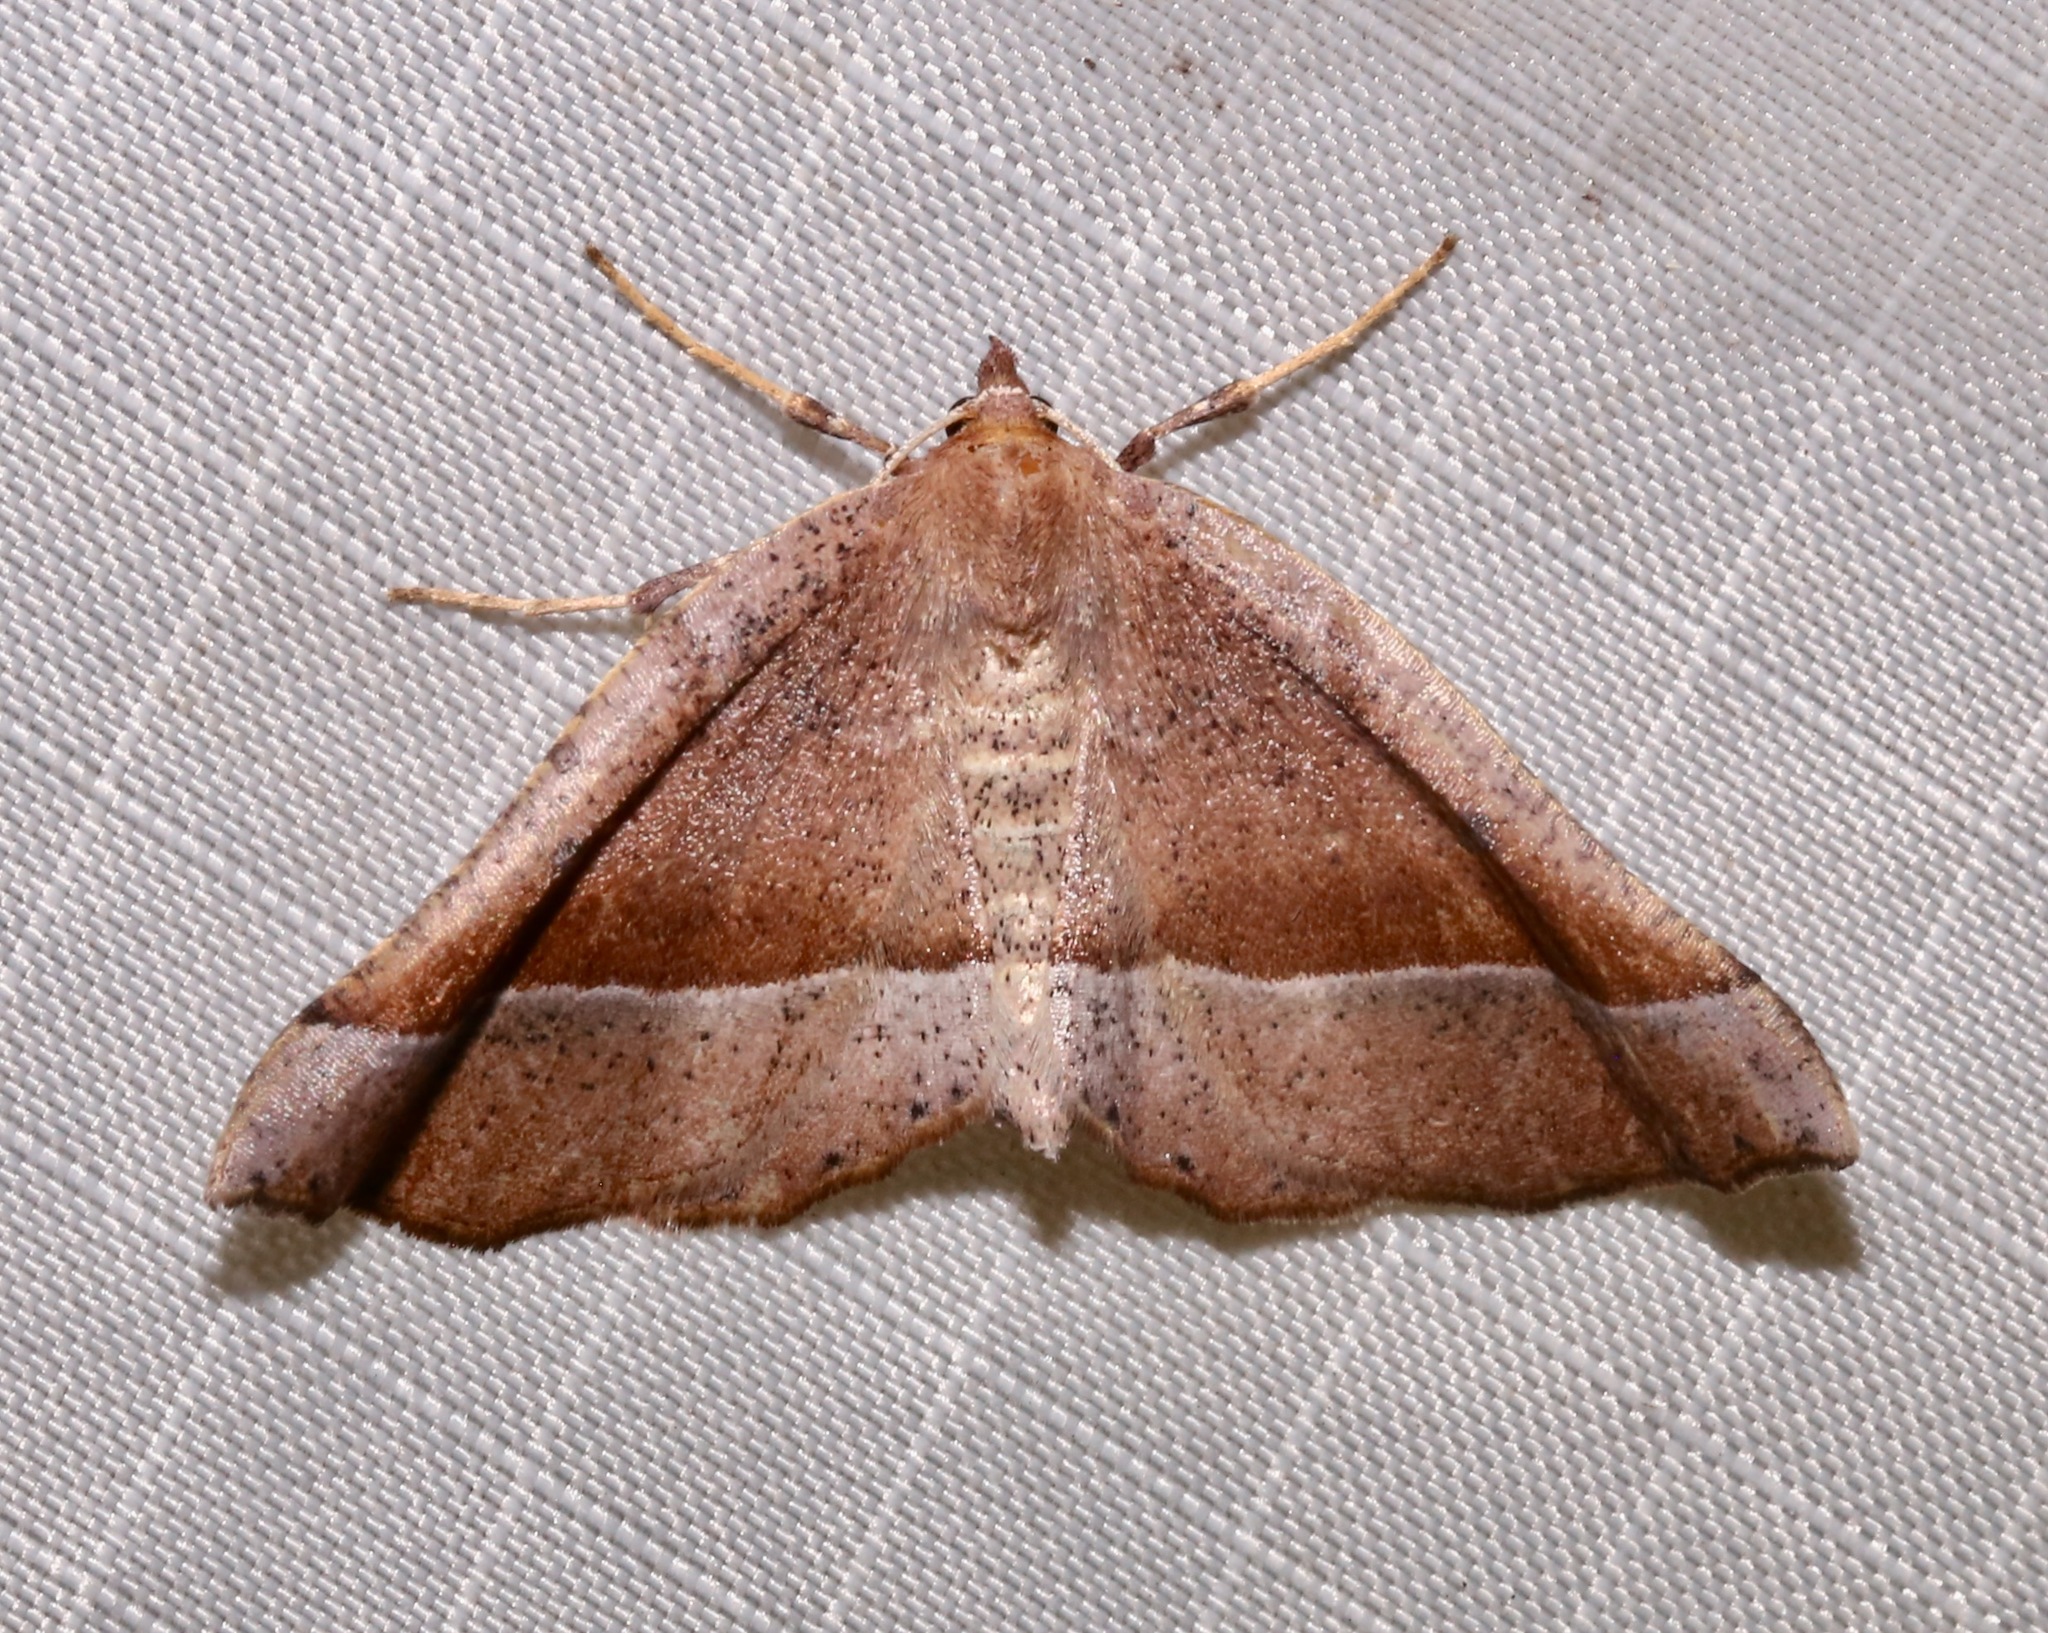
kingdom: Animalia
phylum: Arthropoda
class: Insecta
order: Lepidoptera
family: Geometridae
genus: Pero
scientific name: Pero
